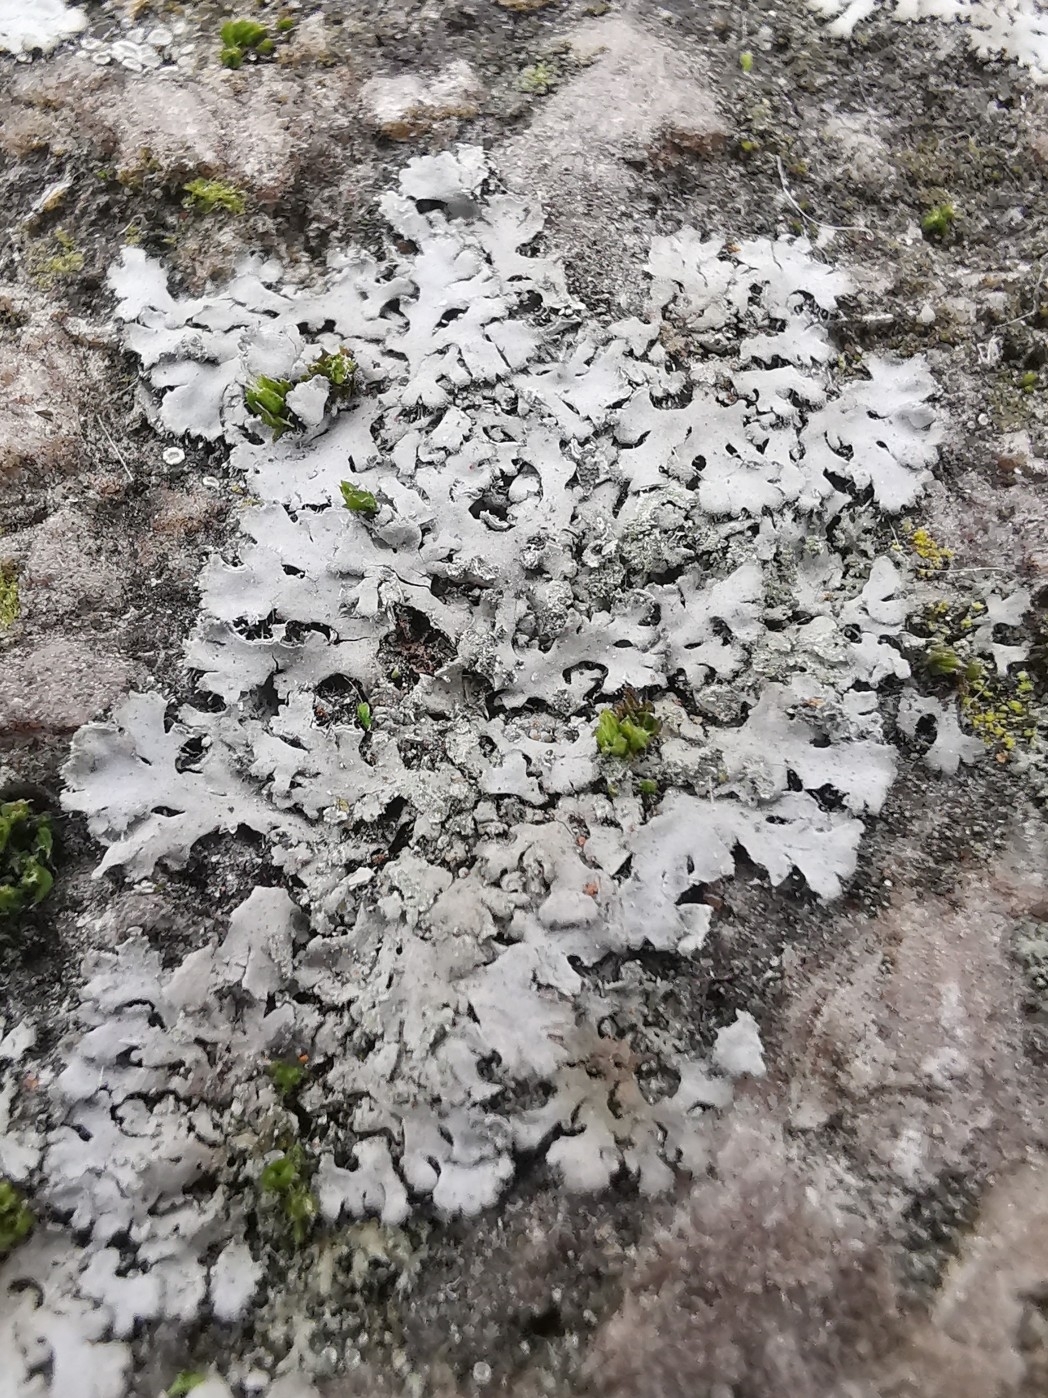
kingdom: Fungi
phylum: Ascomycota
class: Lecanoromycetes
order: Caliciales
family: Physciaceae
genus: Phaeophyscia
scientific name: Phaeophyscia orbicularis
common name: Mealy shadow lichen
